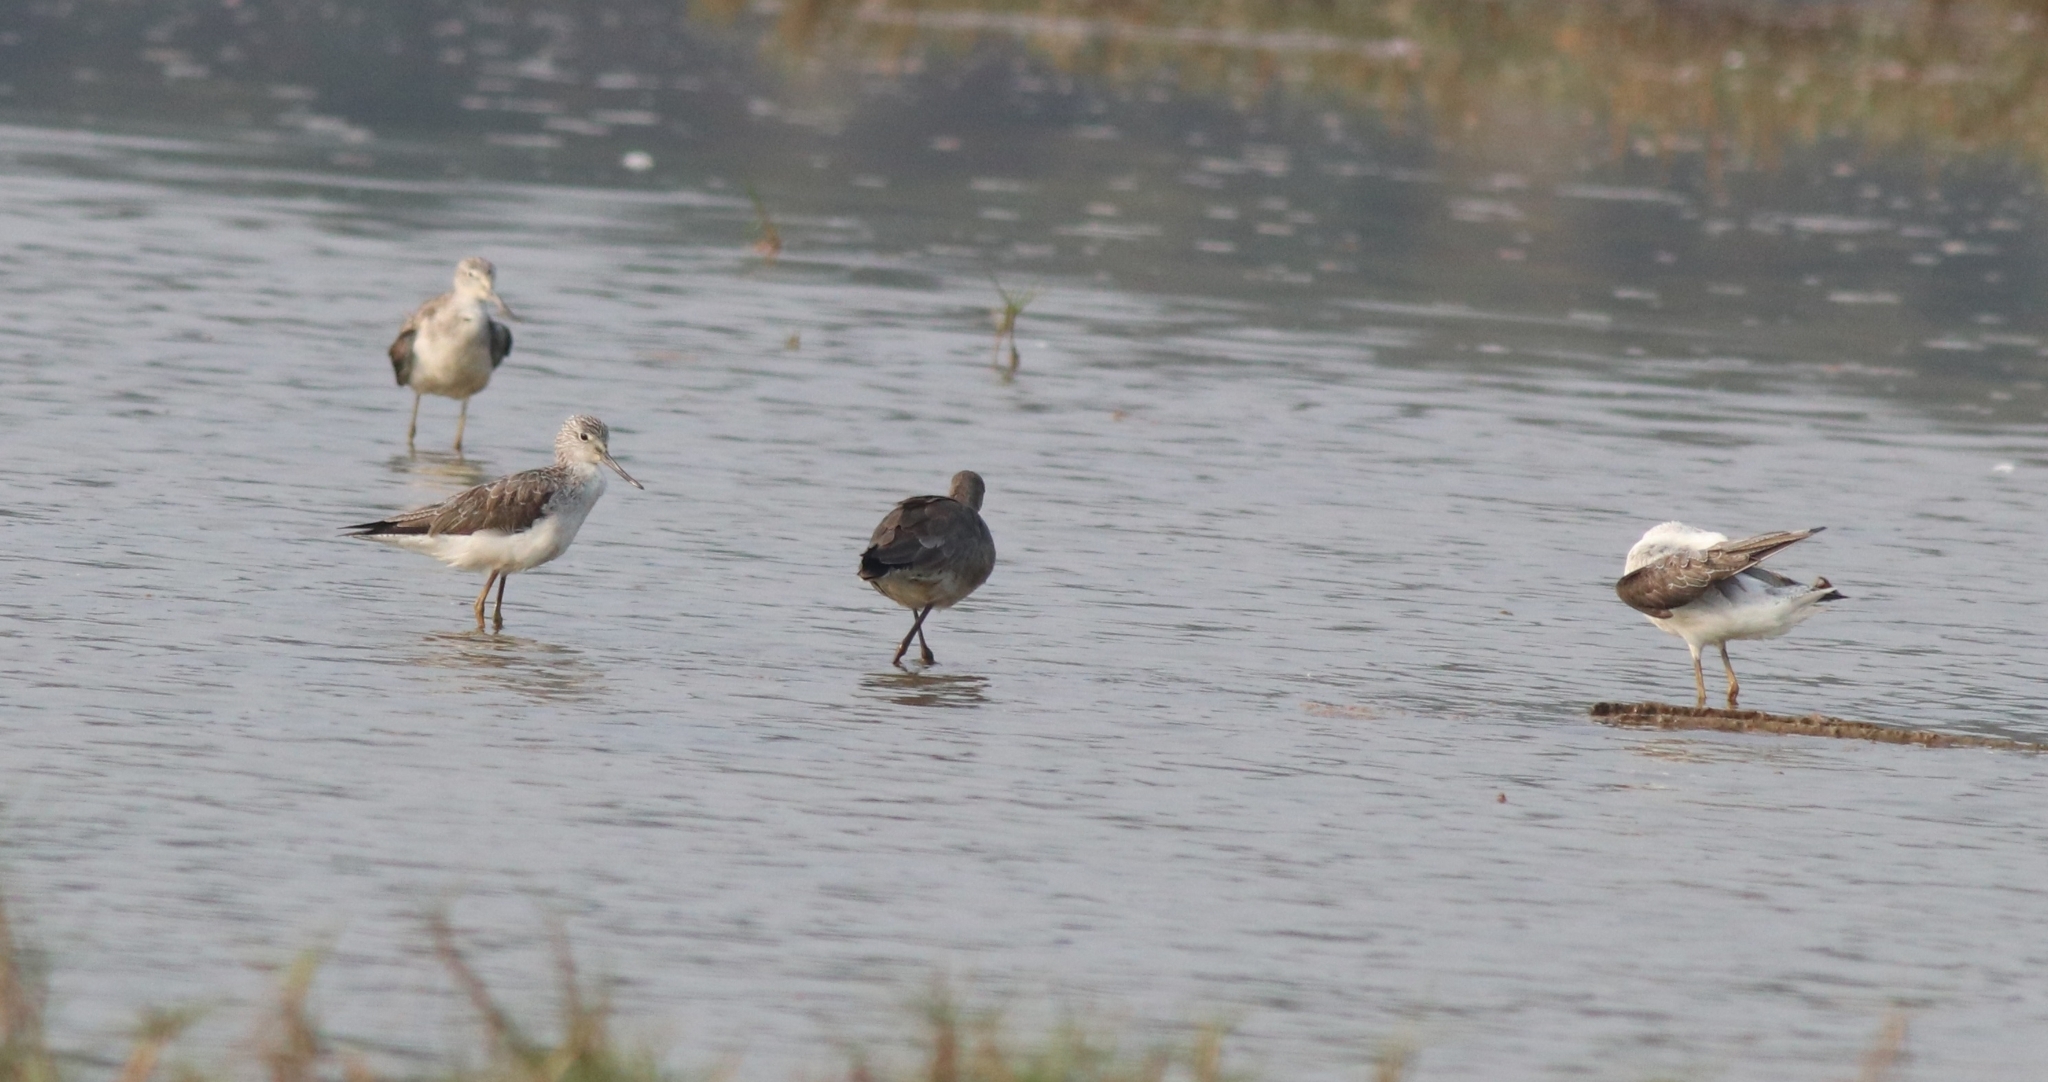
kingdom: Animalia
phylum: Chordata
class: Aves
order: Charadriiformes
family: Scolopacidae
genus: Tringa
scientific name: Tringa nebularia
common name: Common greenshank
